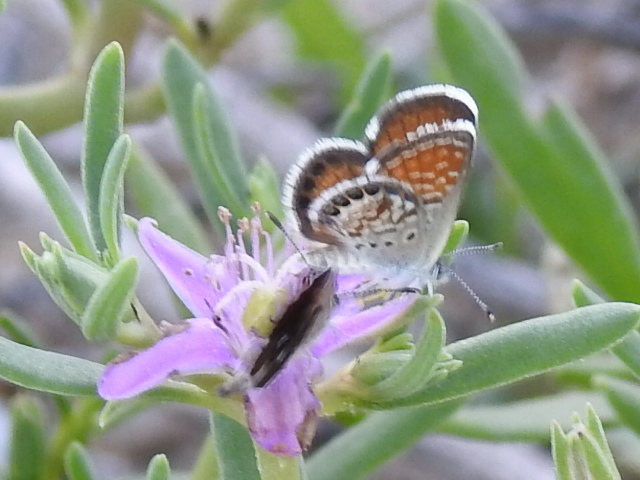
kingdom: Animalia
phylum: Arthropoda
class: Insecta
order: Lepidoptera
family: Lycaenidae
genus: Brephidium
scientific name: Brephidium exilis
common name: Pygmy blue
